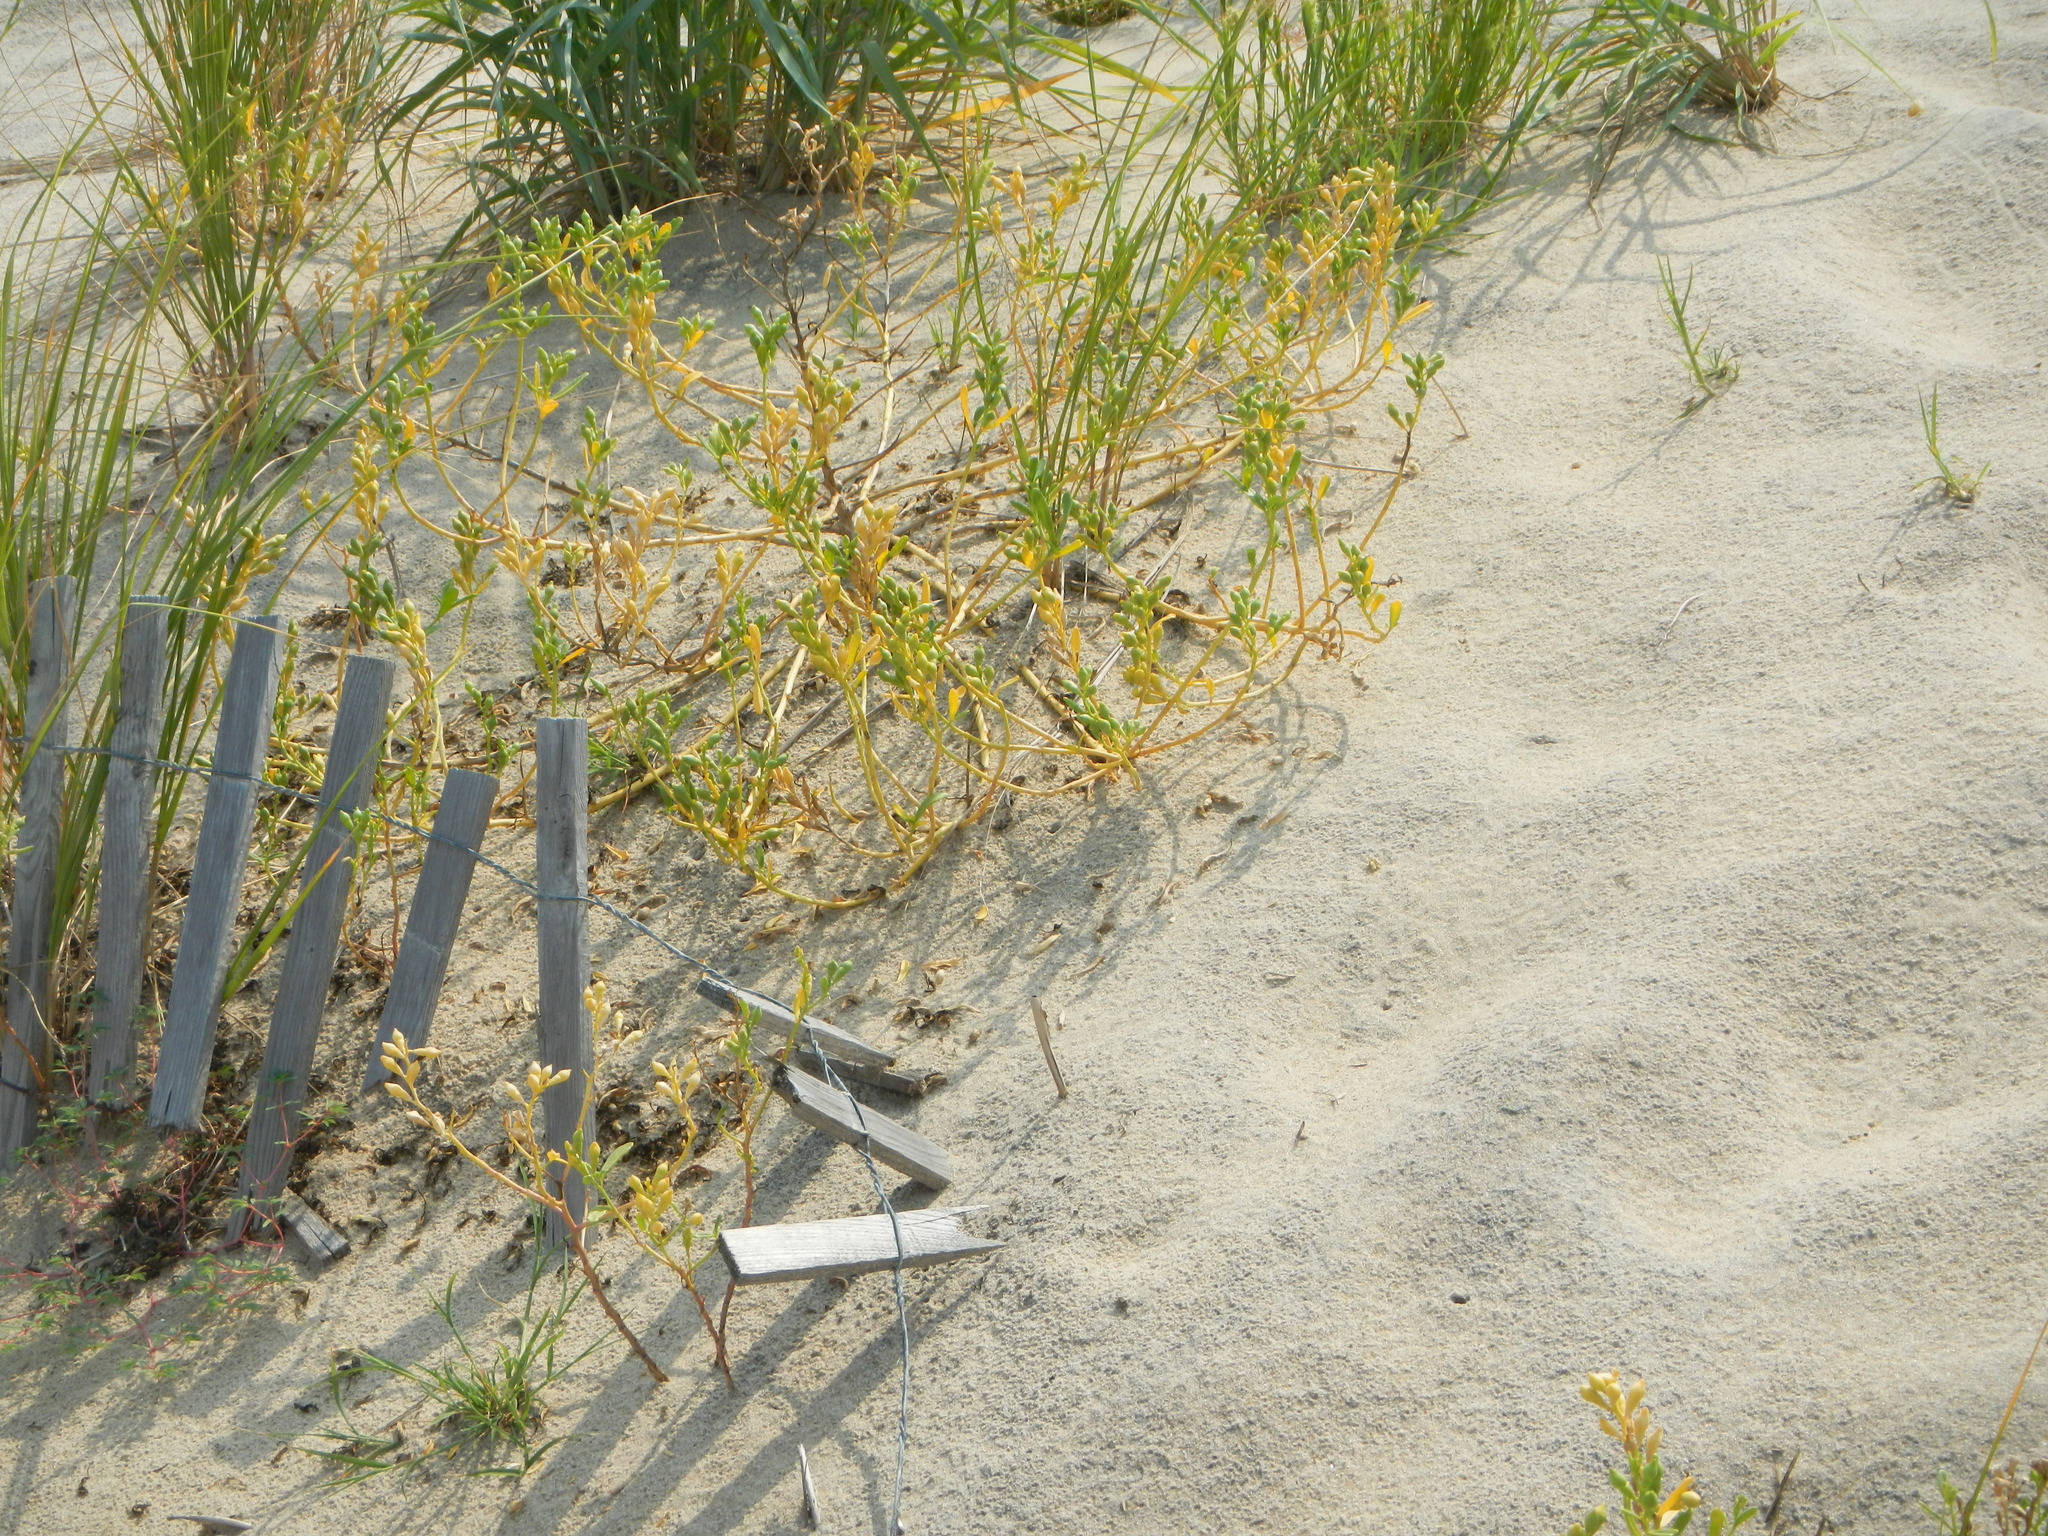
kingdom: Plantae
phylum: Tracheophyta
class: Magnoliopsida
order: Brassicales
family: Brassicaceae
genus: Cakile
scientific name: Cakile edentula
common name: American sea rocket
